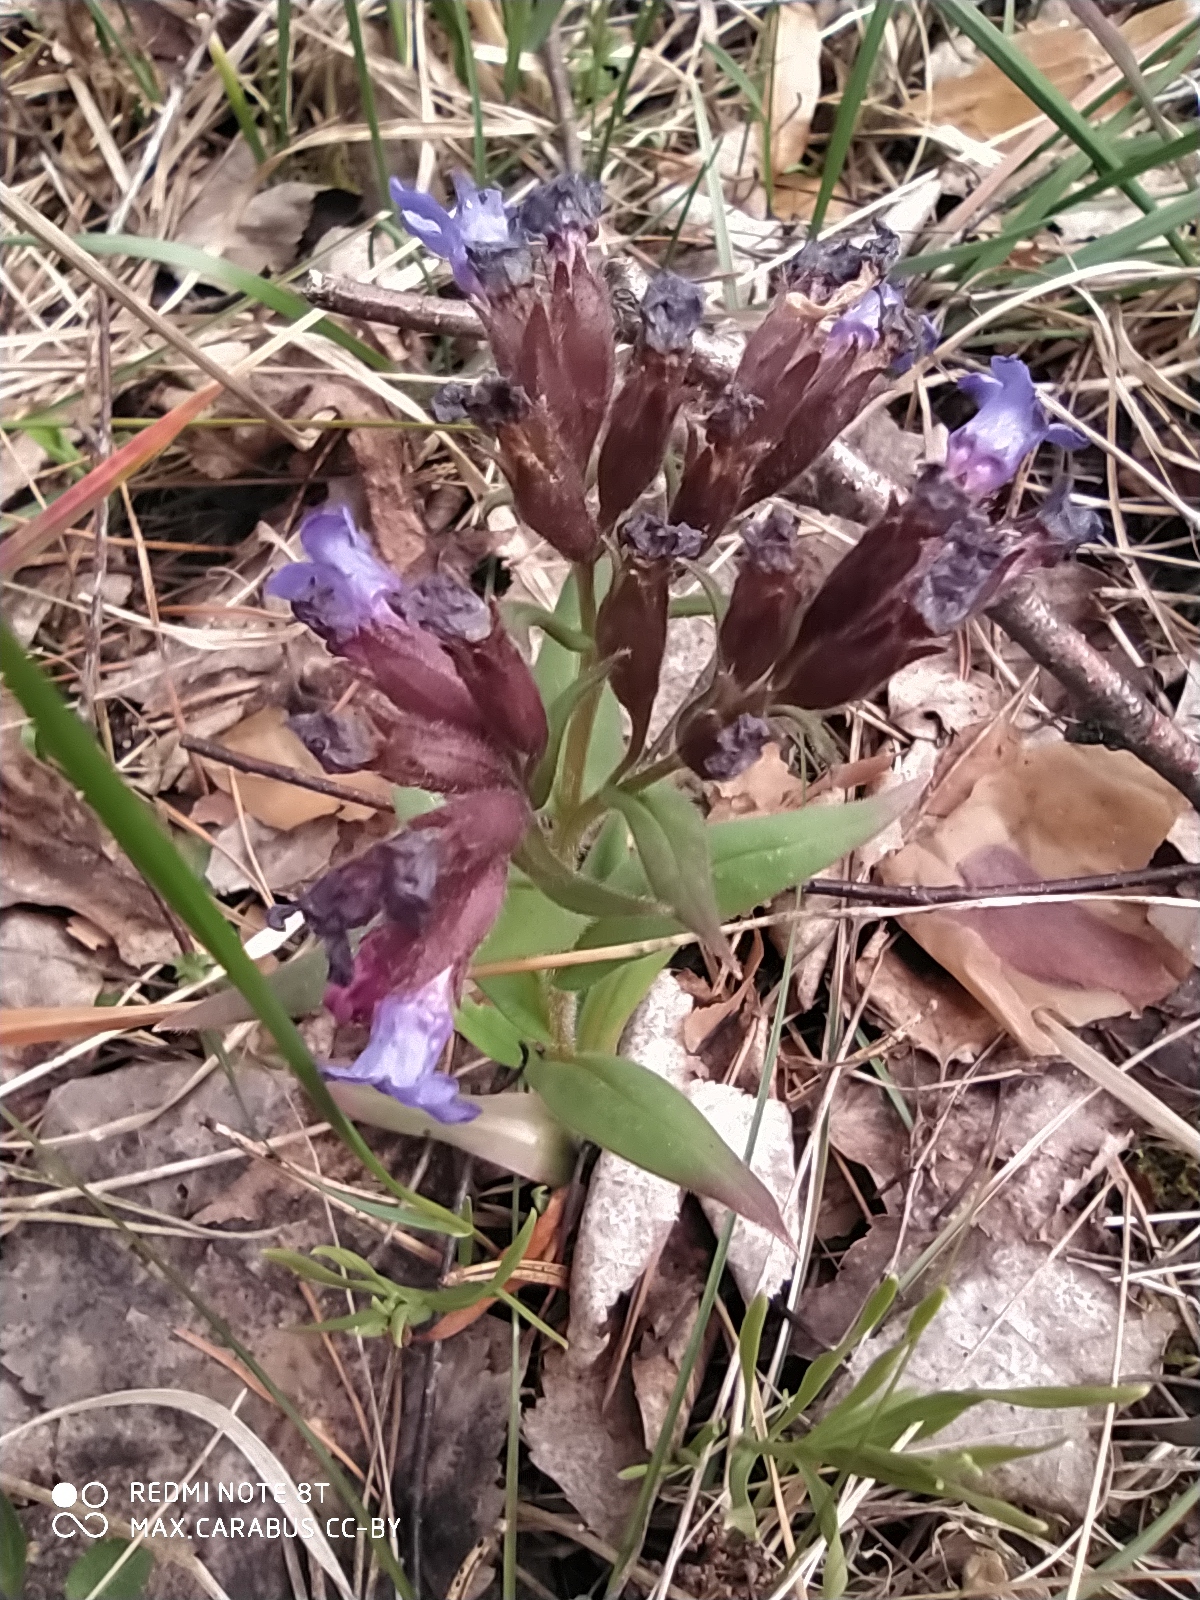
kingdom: Plantae
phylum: Tracheophyta
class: Magnoliopsida
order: Boraginales
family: Boraginaceae
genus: Pulmonaria
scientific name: Pulmonaria angustifolia
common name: Blue cowslip
